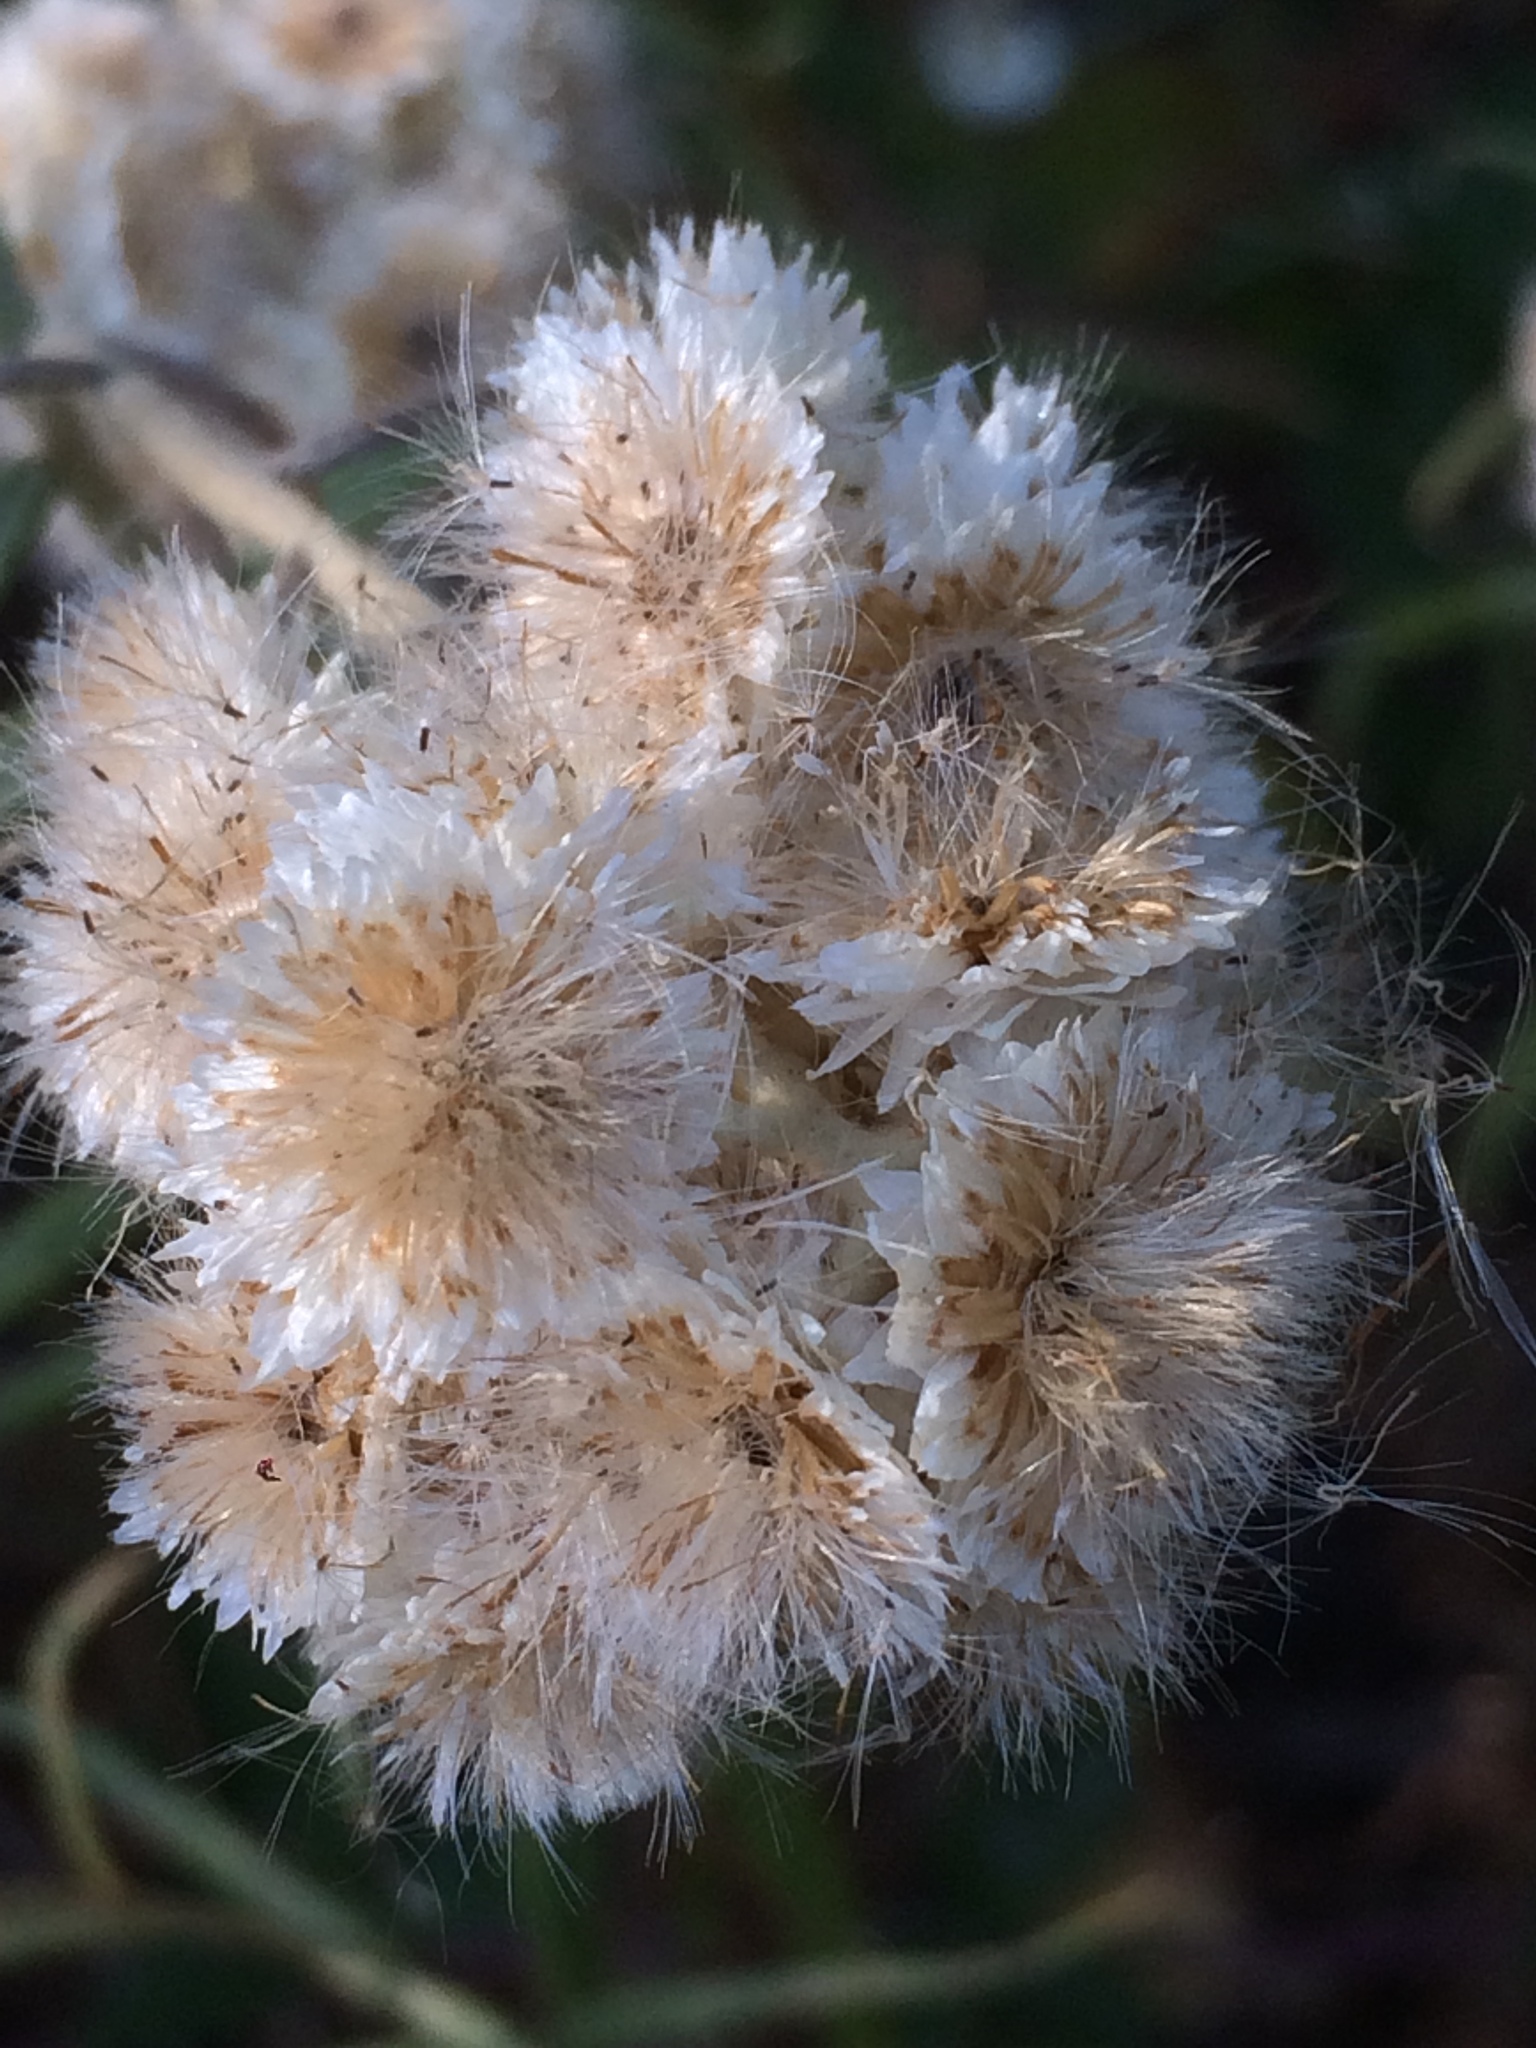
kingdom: Plantae
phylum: Tracheophyta
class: Magnoliopsida
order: Asterales
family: Asteraceae
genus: Anaphalis
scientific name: Anaphalis margaritacea
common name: Pearly everlasting
